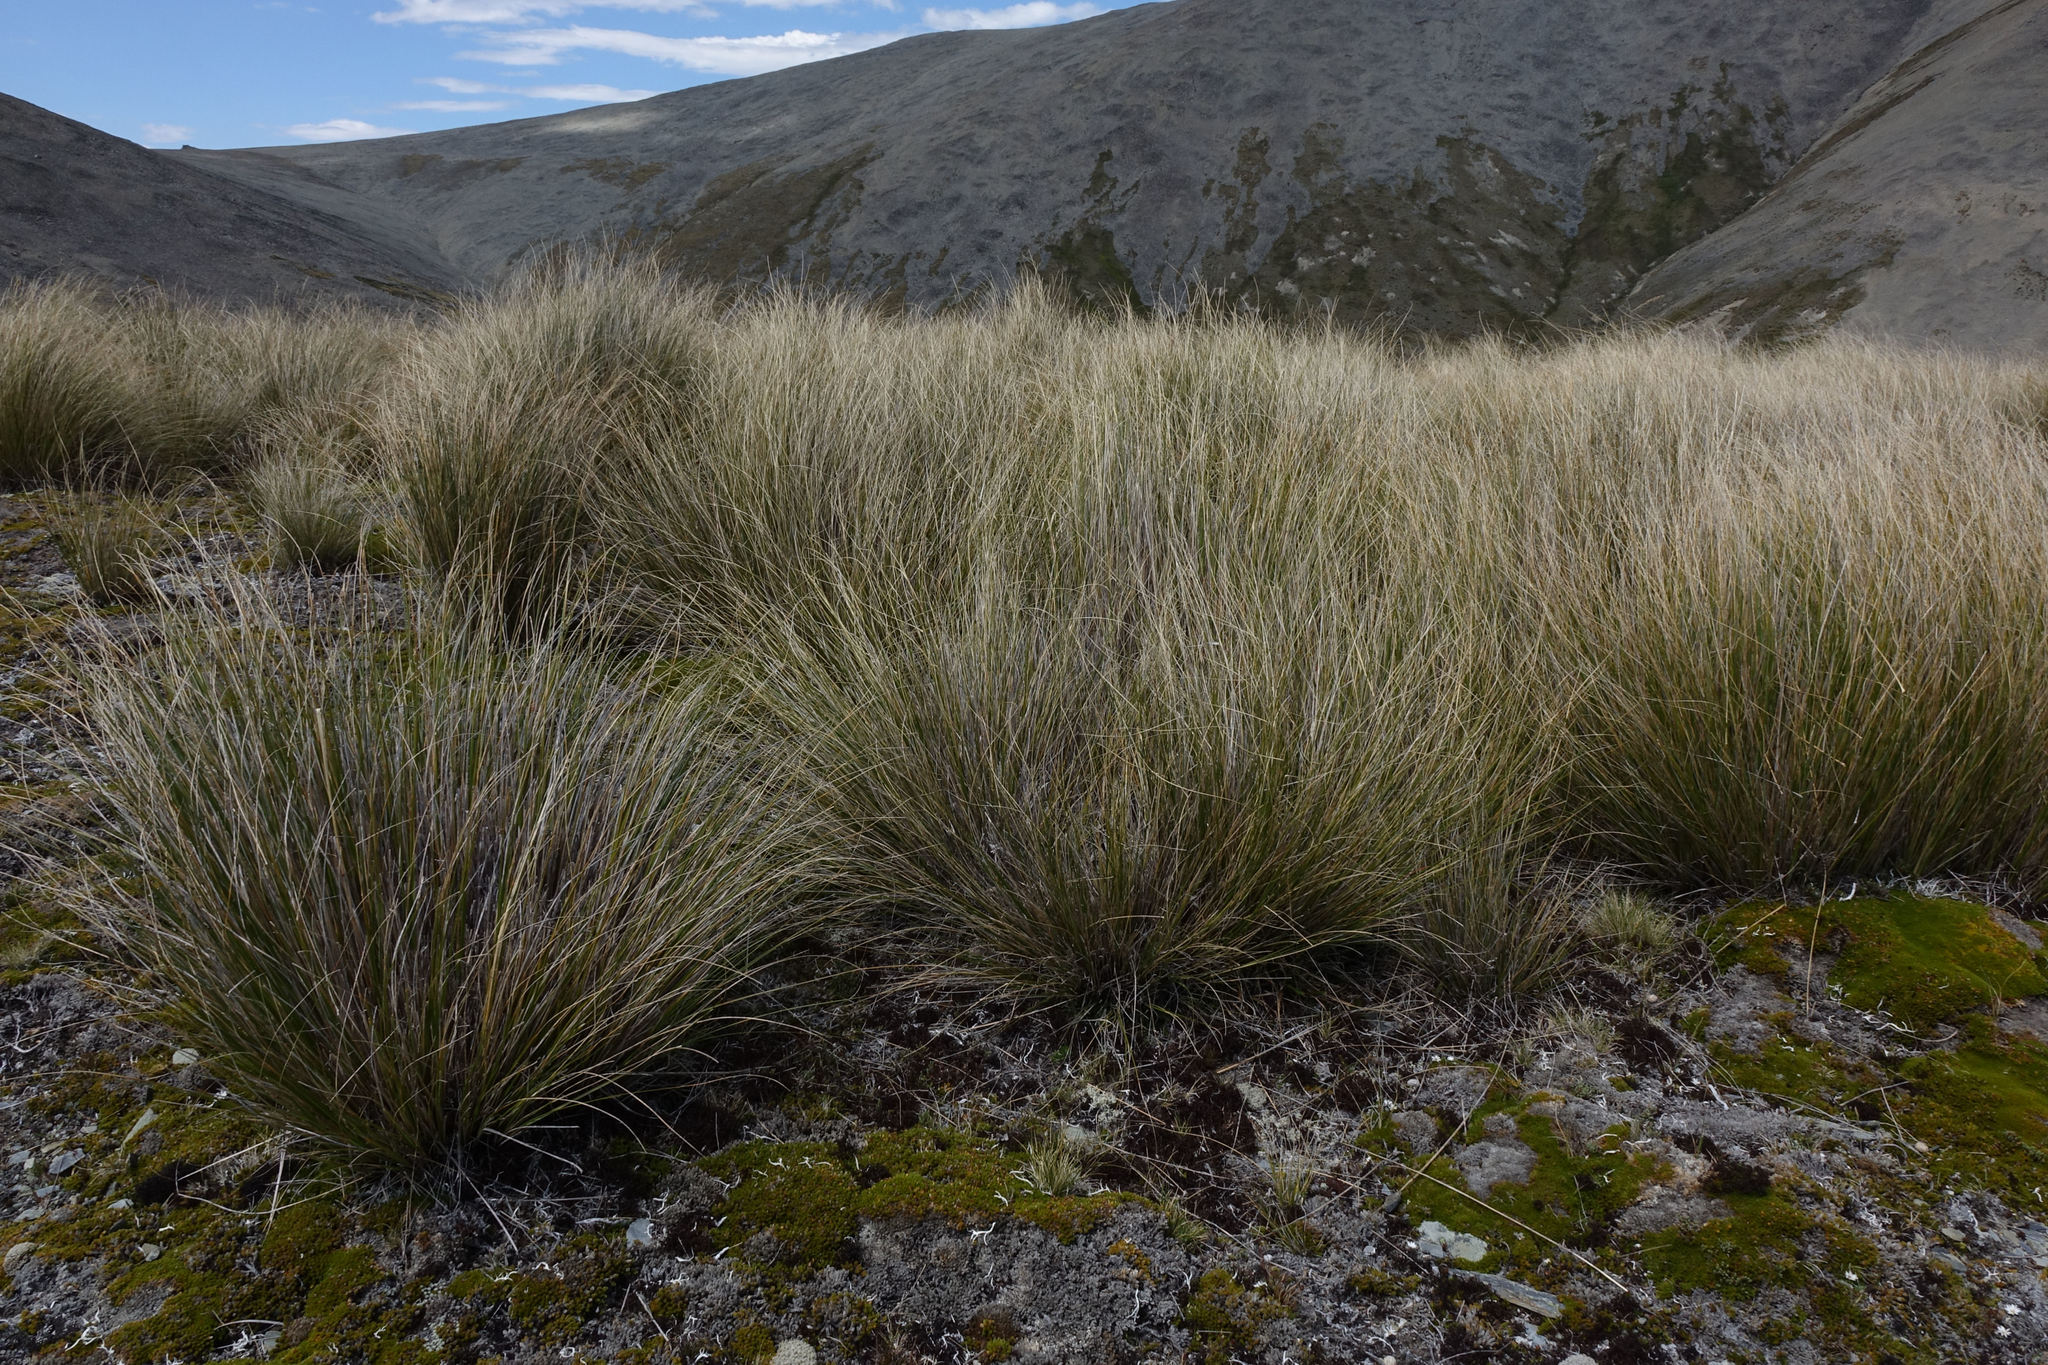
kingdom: Plantae
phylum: Tracheophyta
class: Liliopsida
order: Poales
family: Poaceae
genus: Chionochloa
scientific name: Chionochloa macra
